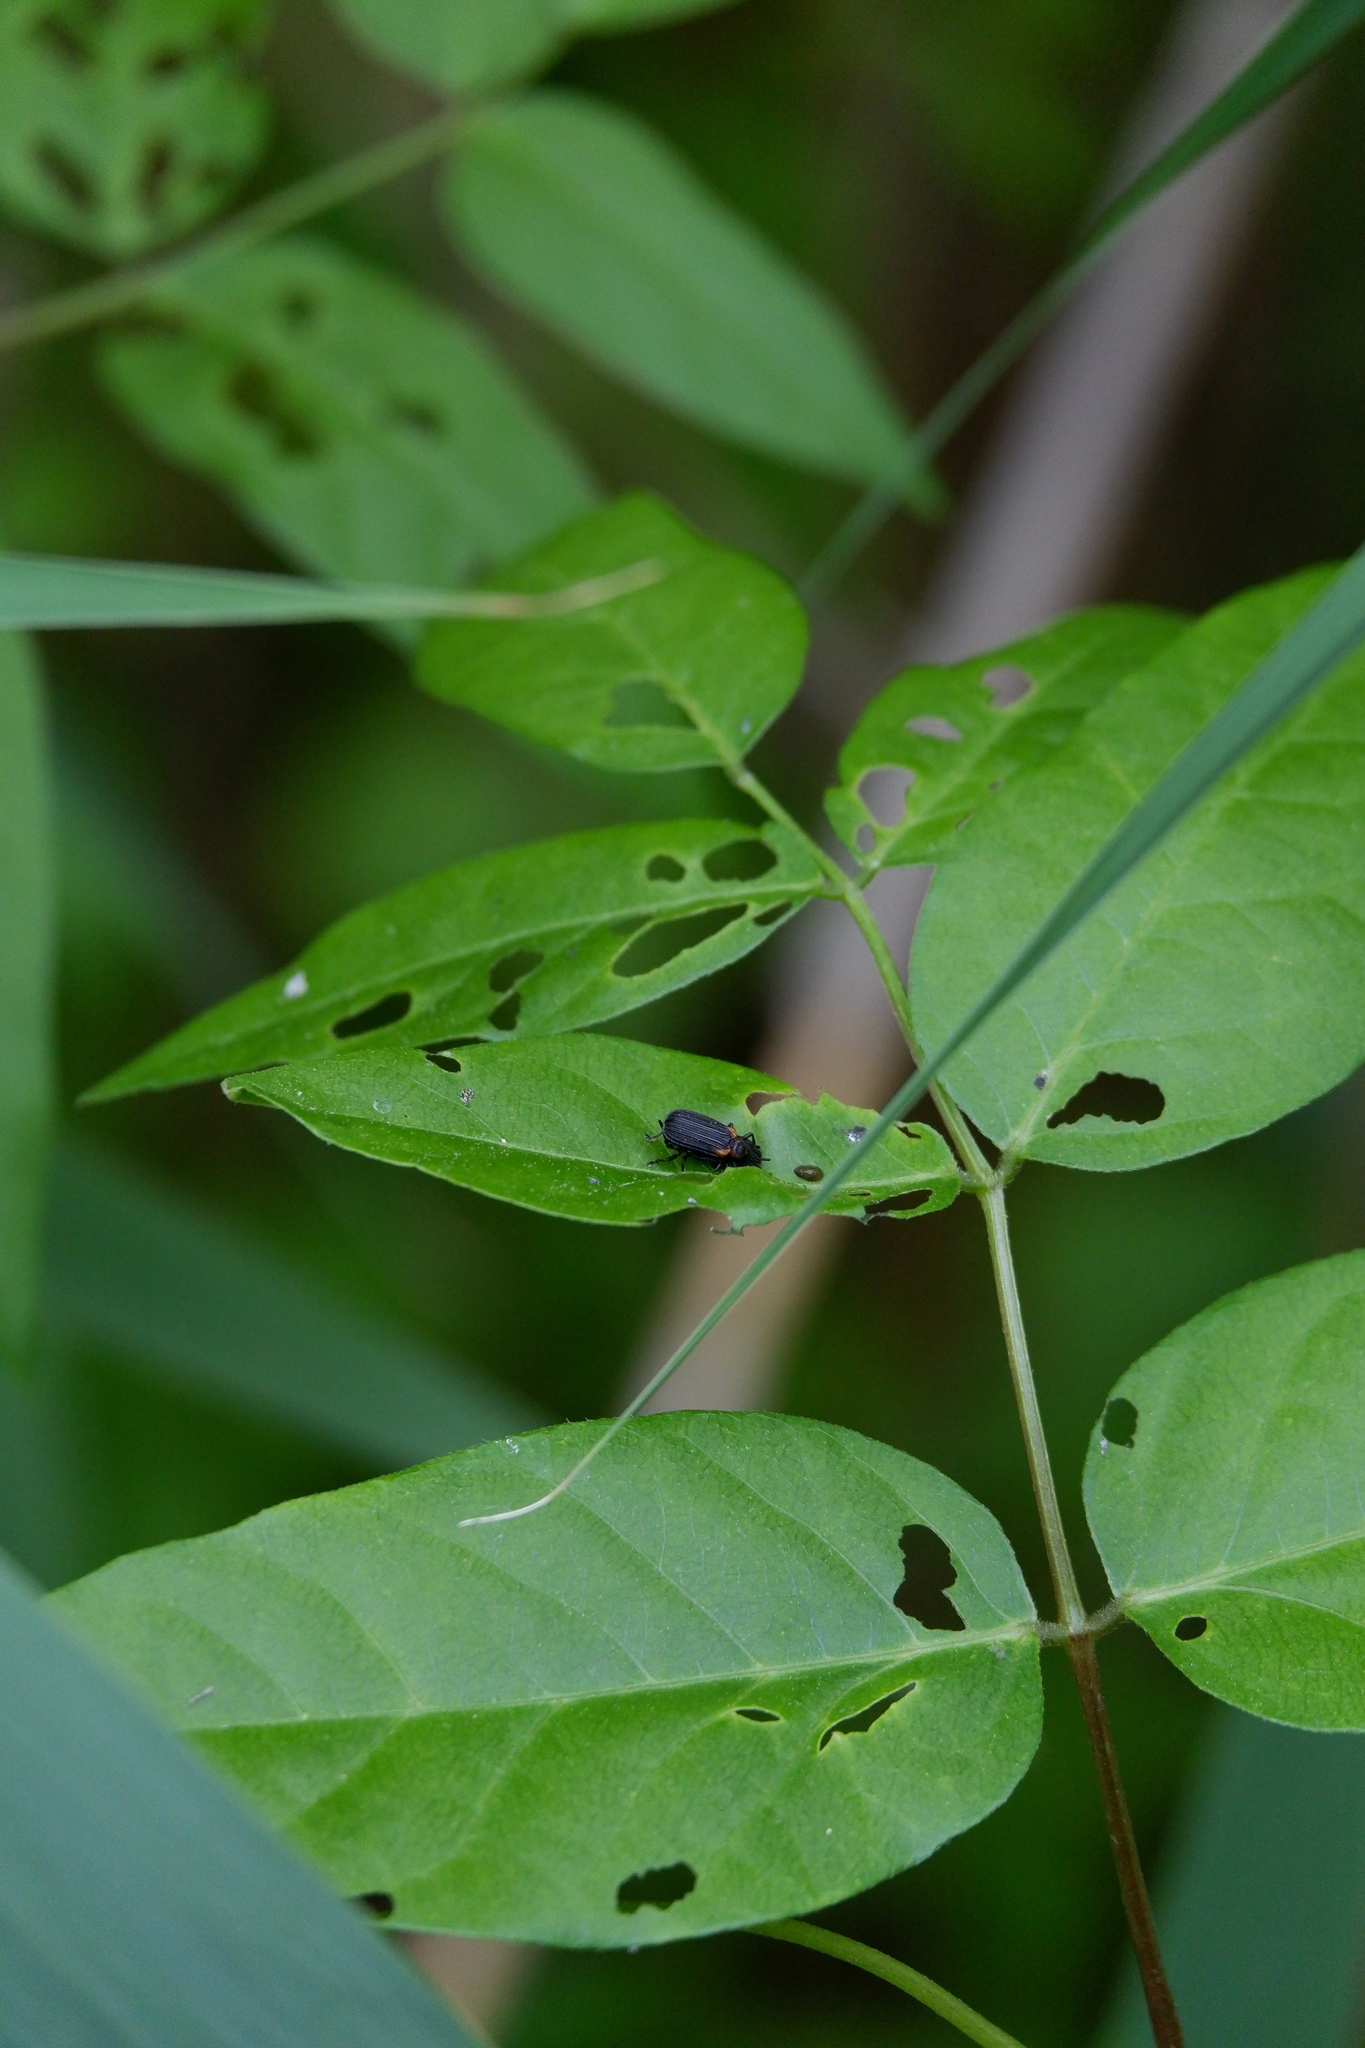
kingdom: Animalia
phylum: Arthropoda
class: Insecta
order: Coleoptera
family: Chrysomelidae
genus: Odontota
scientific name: Odontota scapularis
